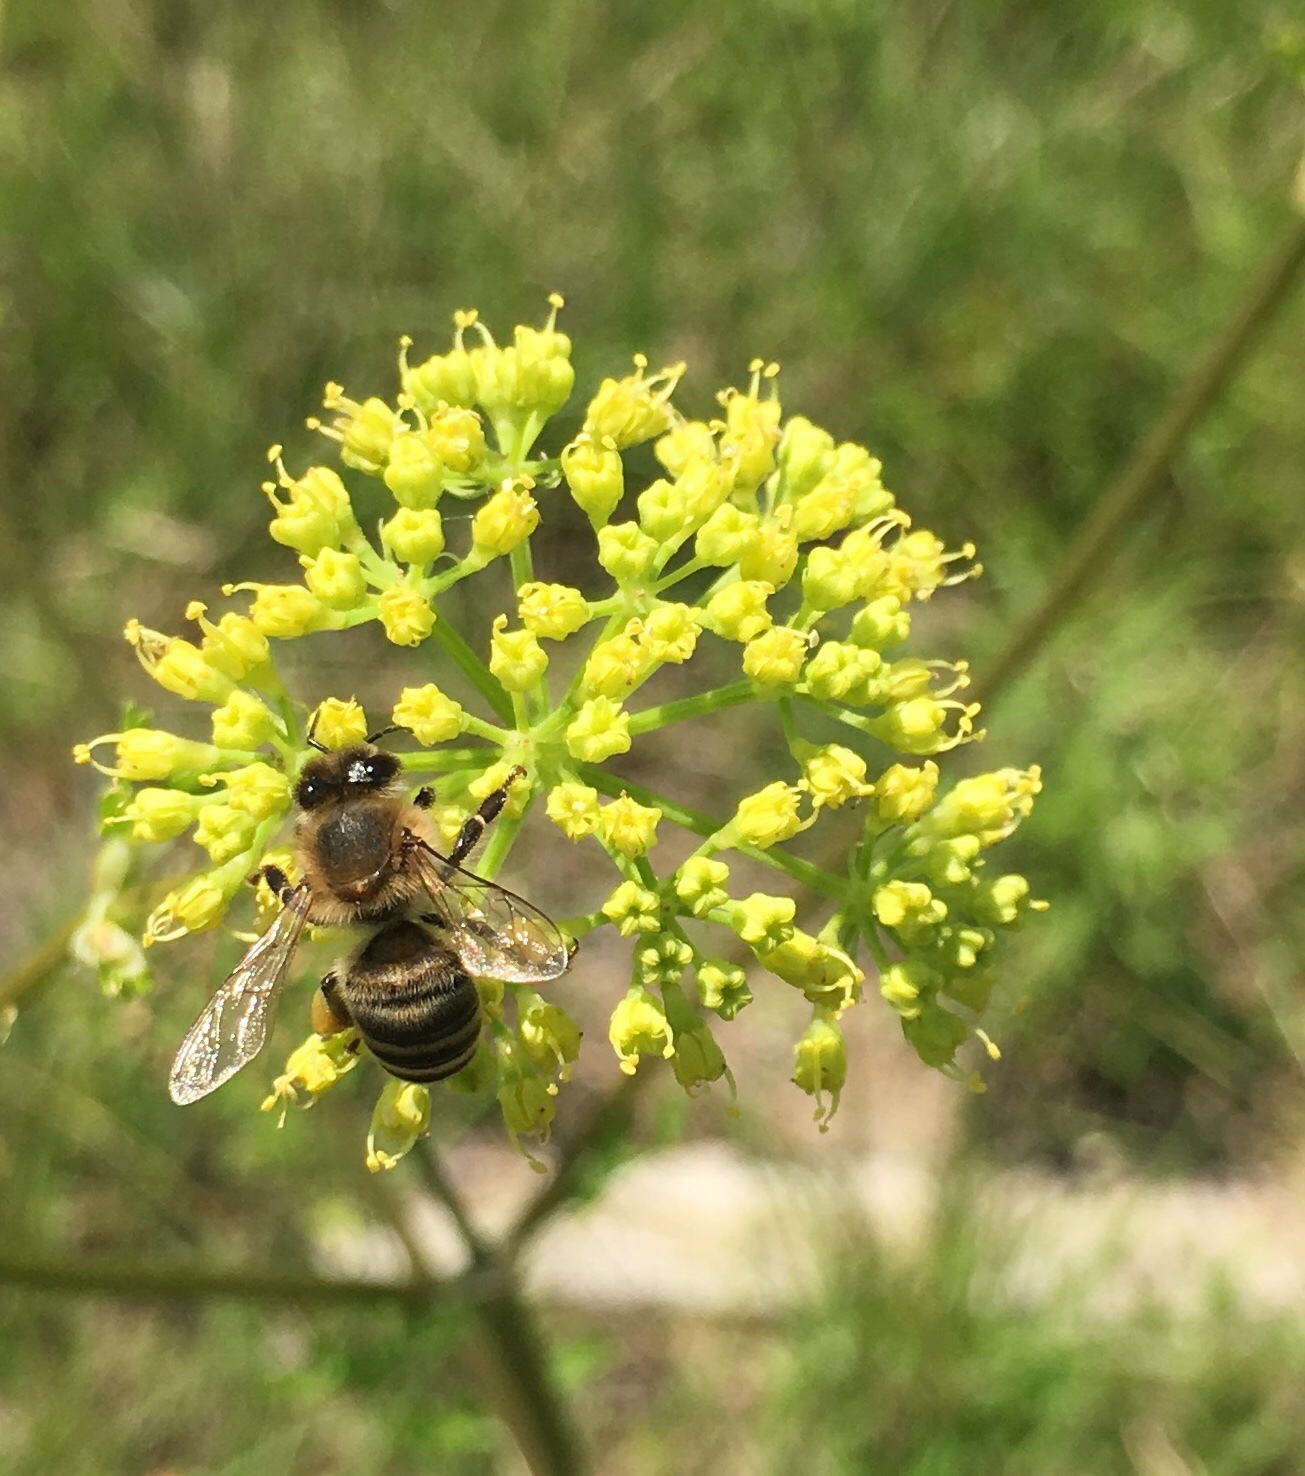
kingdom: Animalia
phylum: Arthropoda
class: Insecta
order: Hymenoptera
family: Apidae
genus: Apis
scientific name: Apis mellifera
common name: Honey bee
